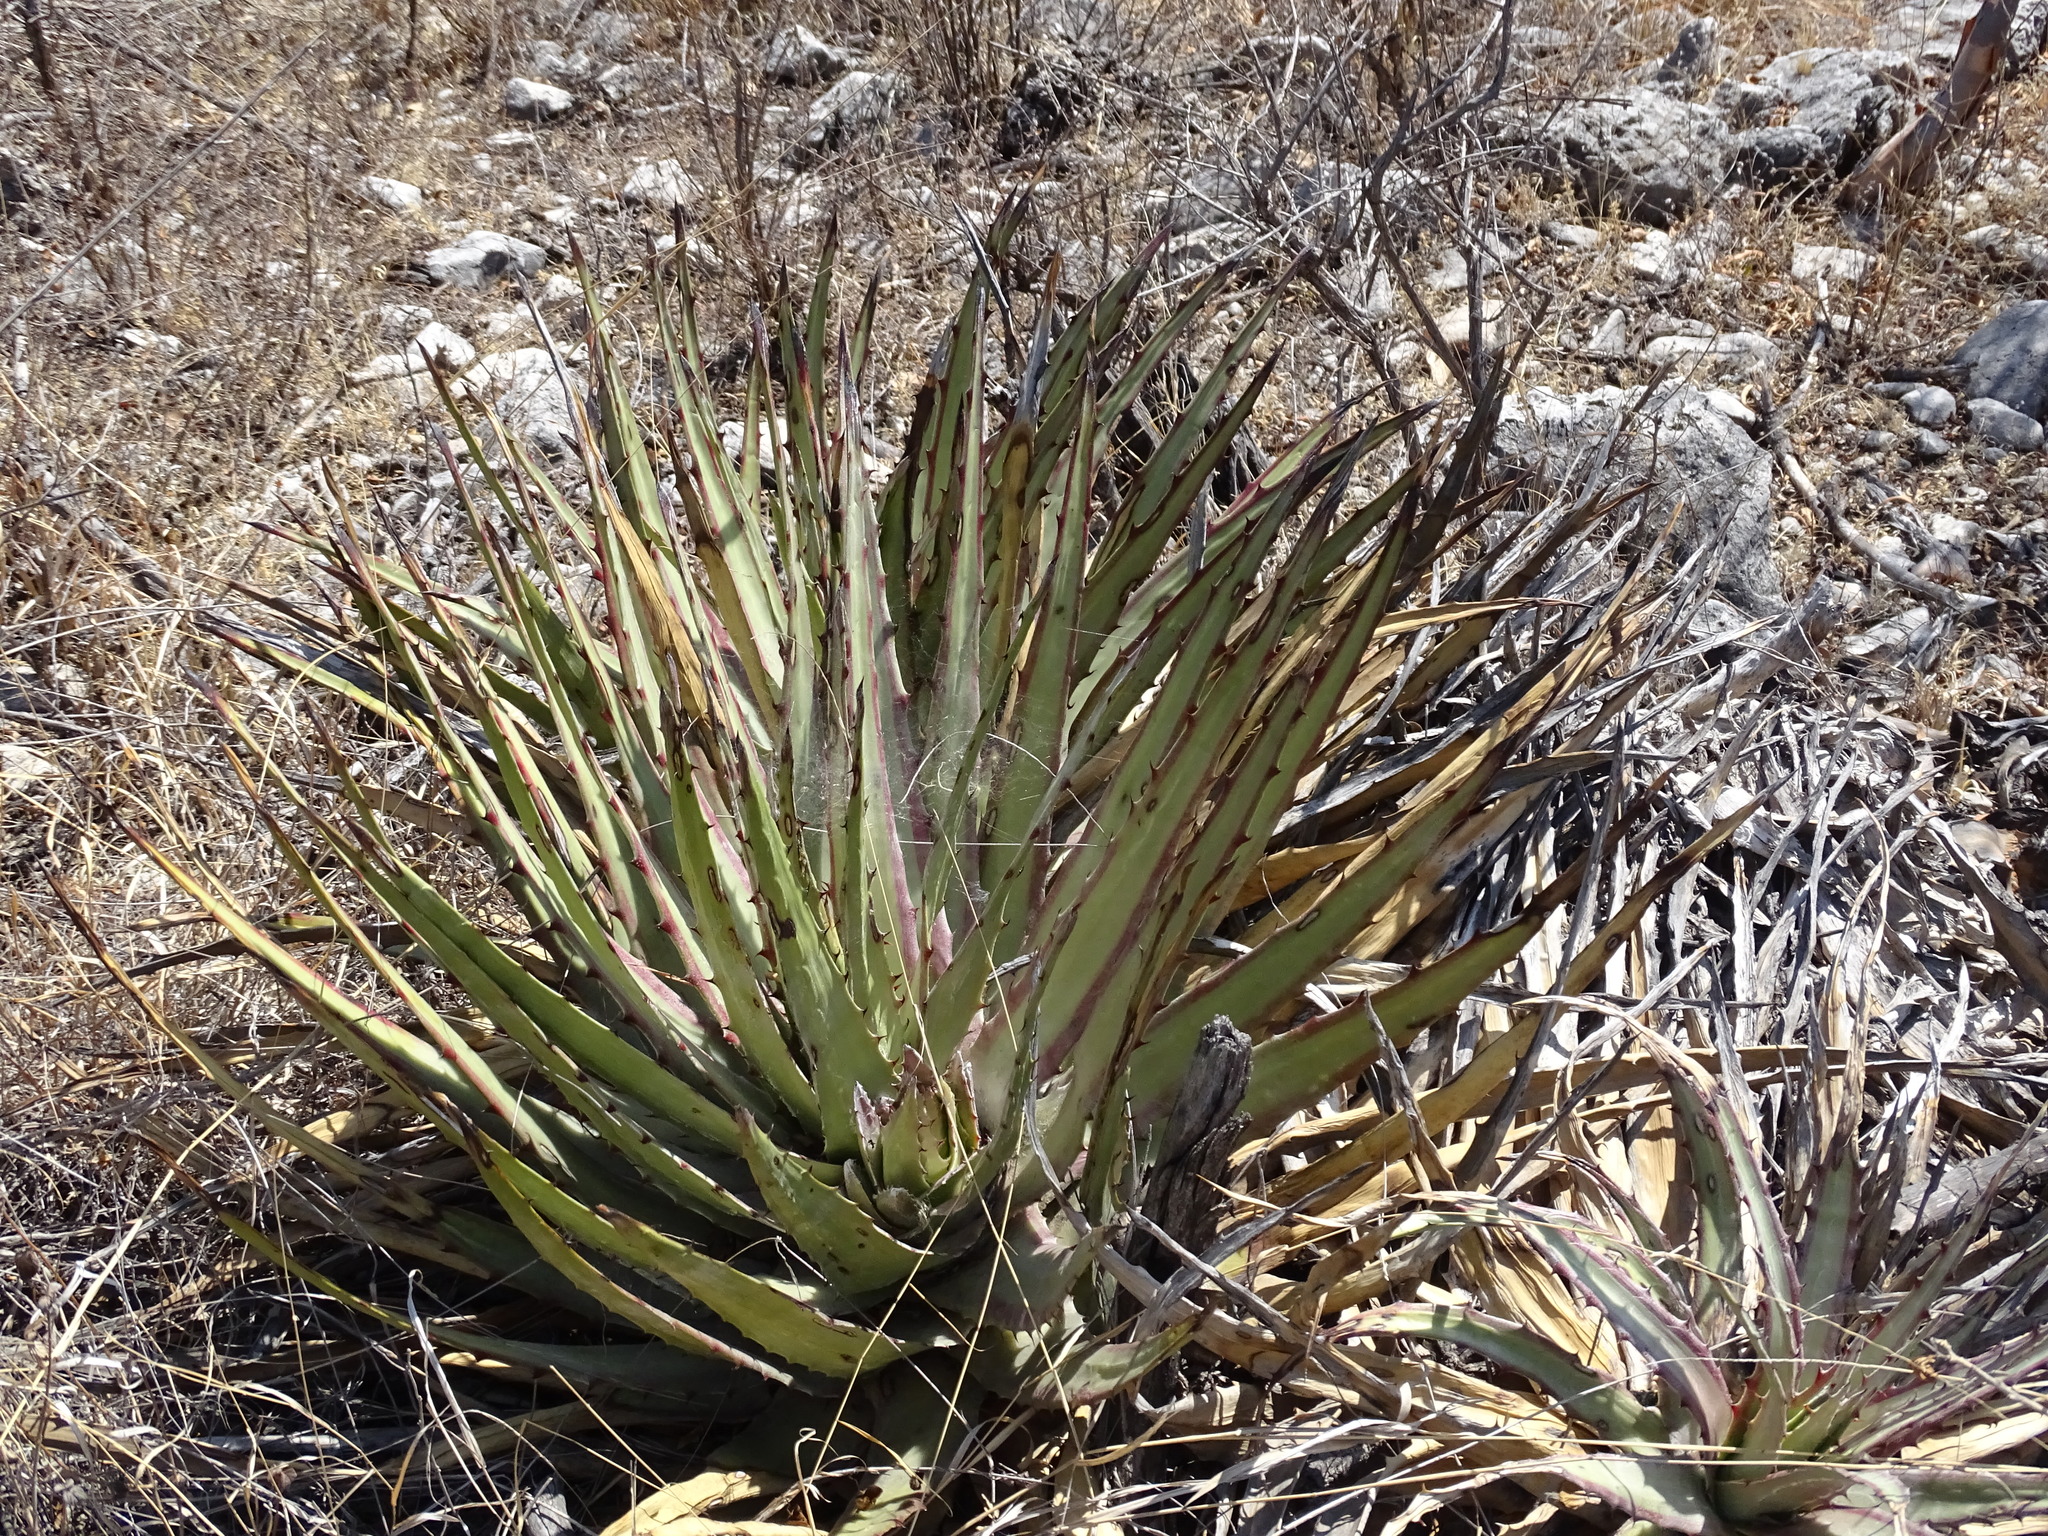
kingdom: Plantae
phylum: Tracheophyta
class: Liliopsida
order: Poales
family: Bromeliaceae
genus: Hechtia
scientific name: Hechtia podantha
